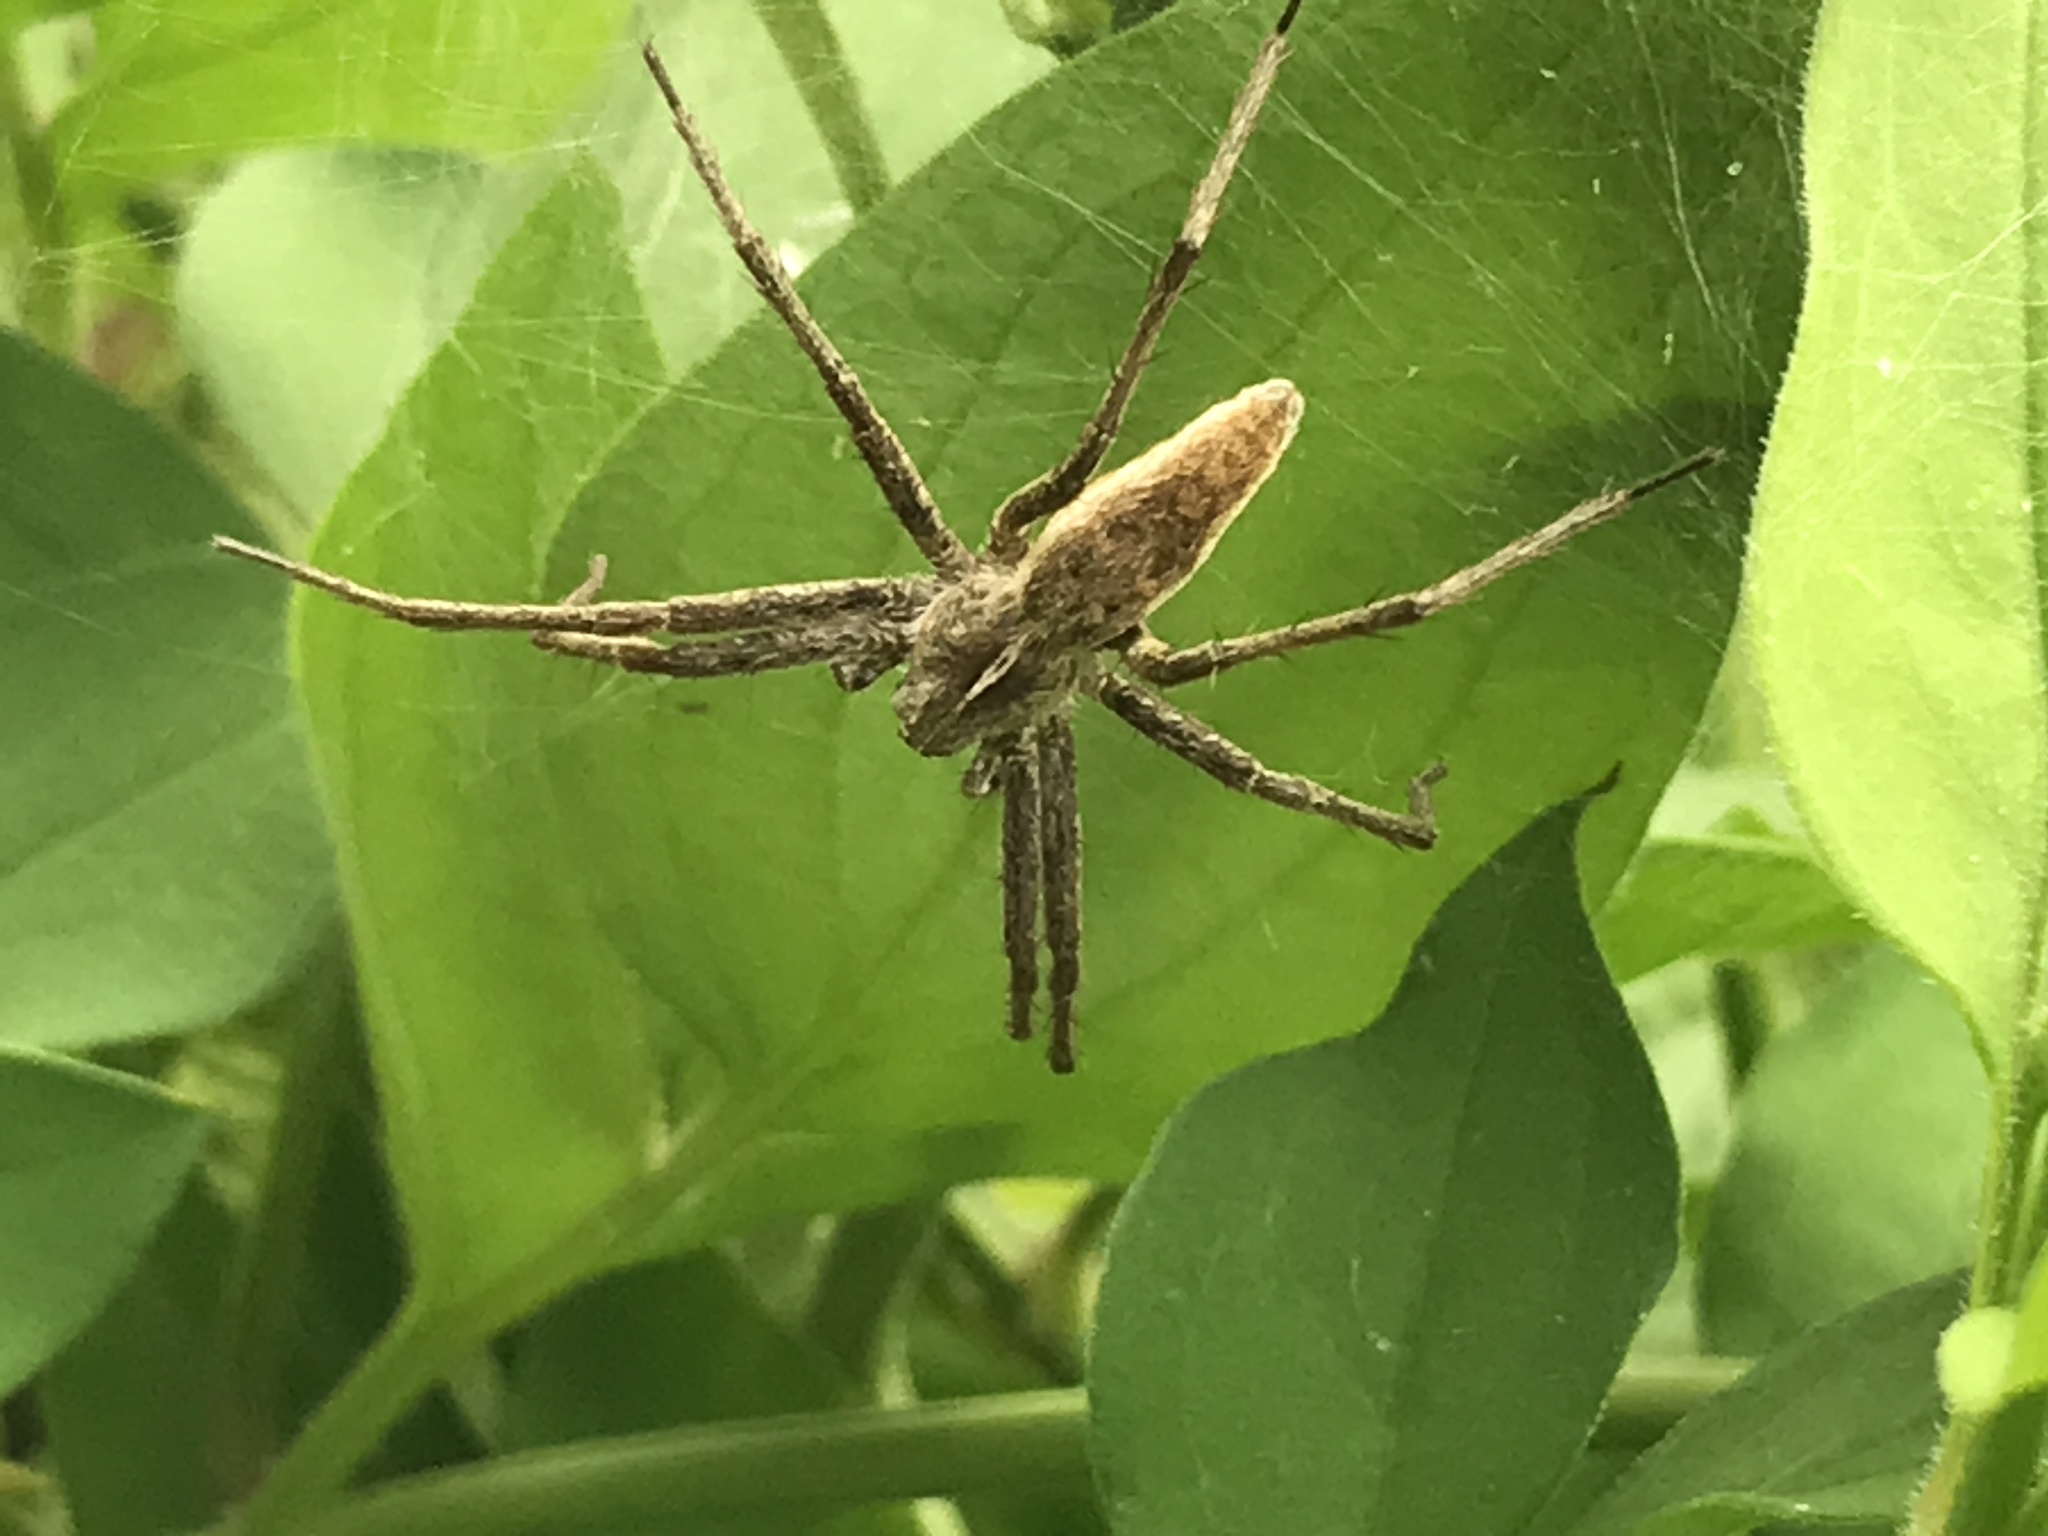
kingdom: Animalia
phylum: Arthropoda
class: Arachnida
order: Araneae
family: Pisauridae
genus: Pisaura
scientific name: Pisaura mirabilis
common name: Tent spider
